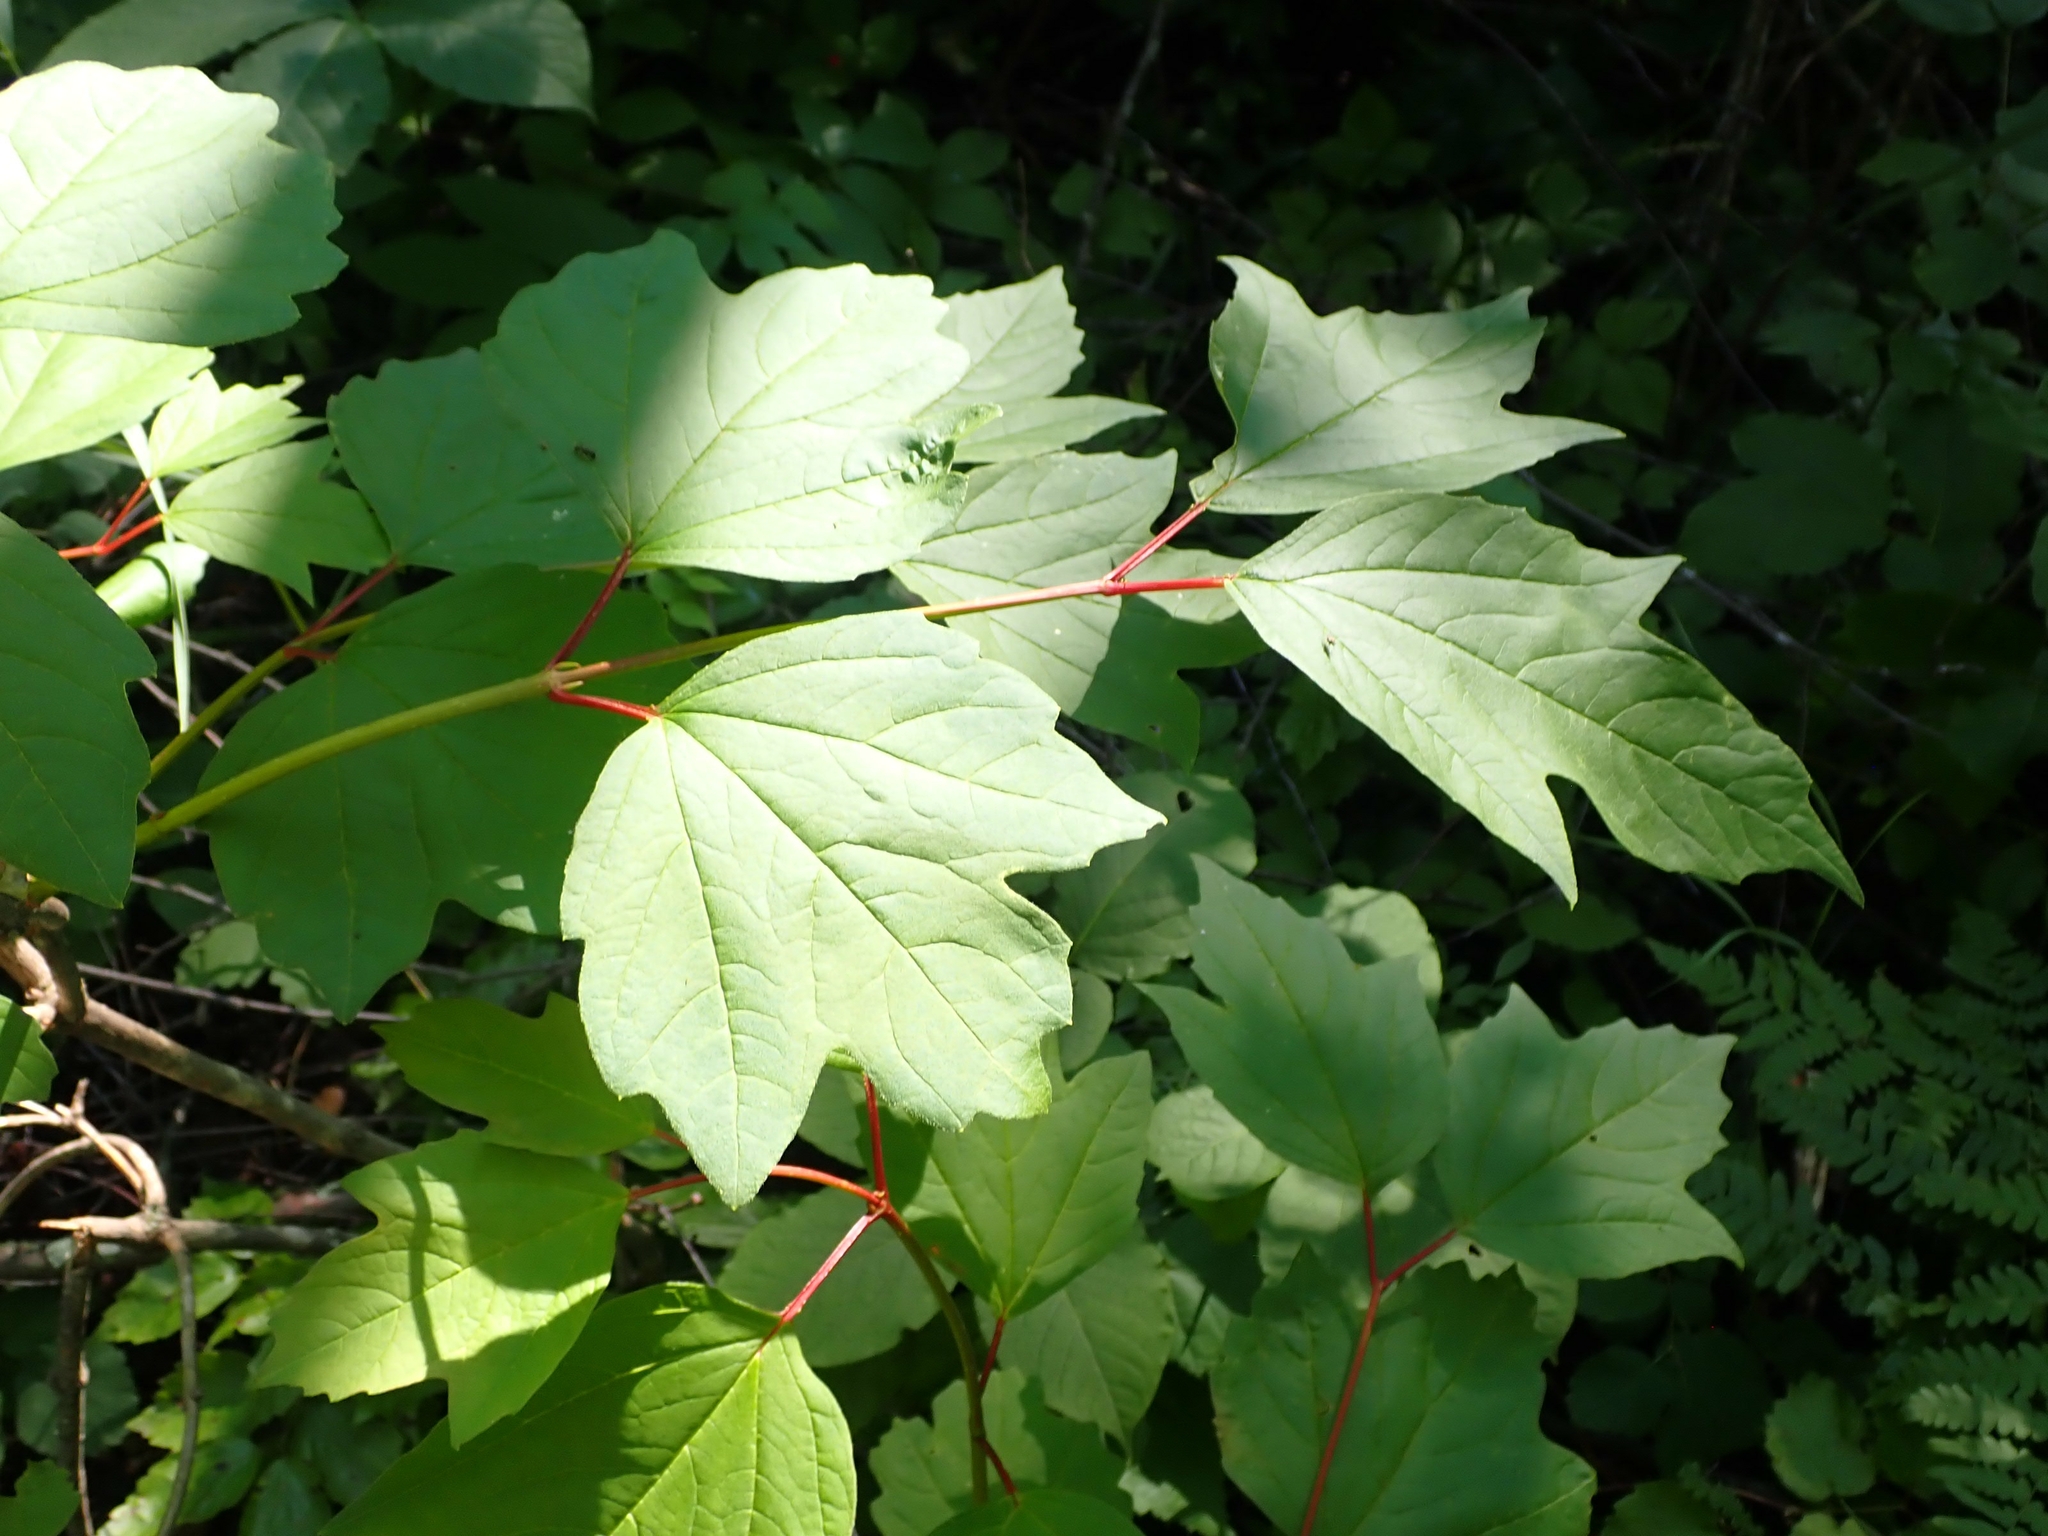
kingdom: Plantae
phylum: Tracheophyta
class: Magnoliopsida
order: Dipsacales
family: Viburnaceae
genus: Viburnum
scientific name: Viburnum trilobum
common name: American cranberrybush
